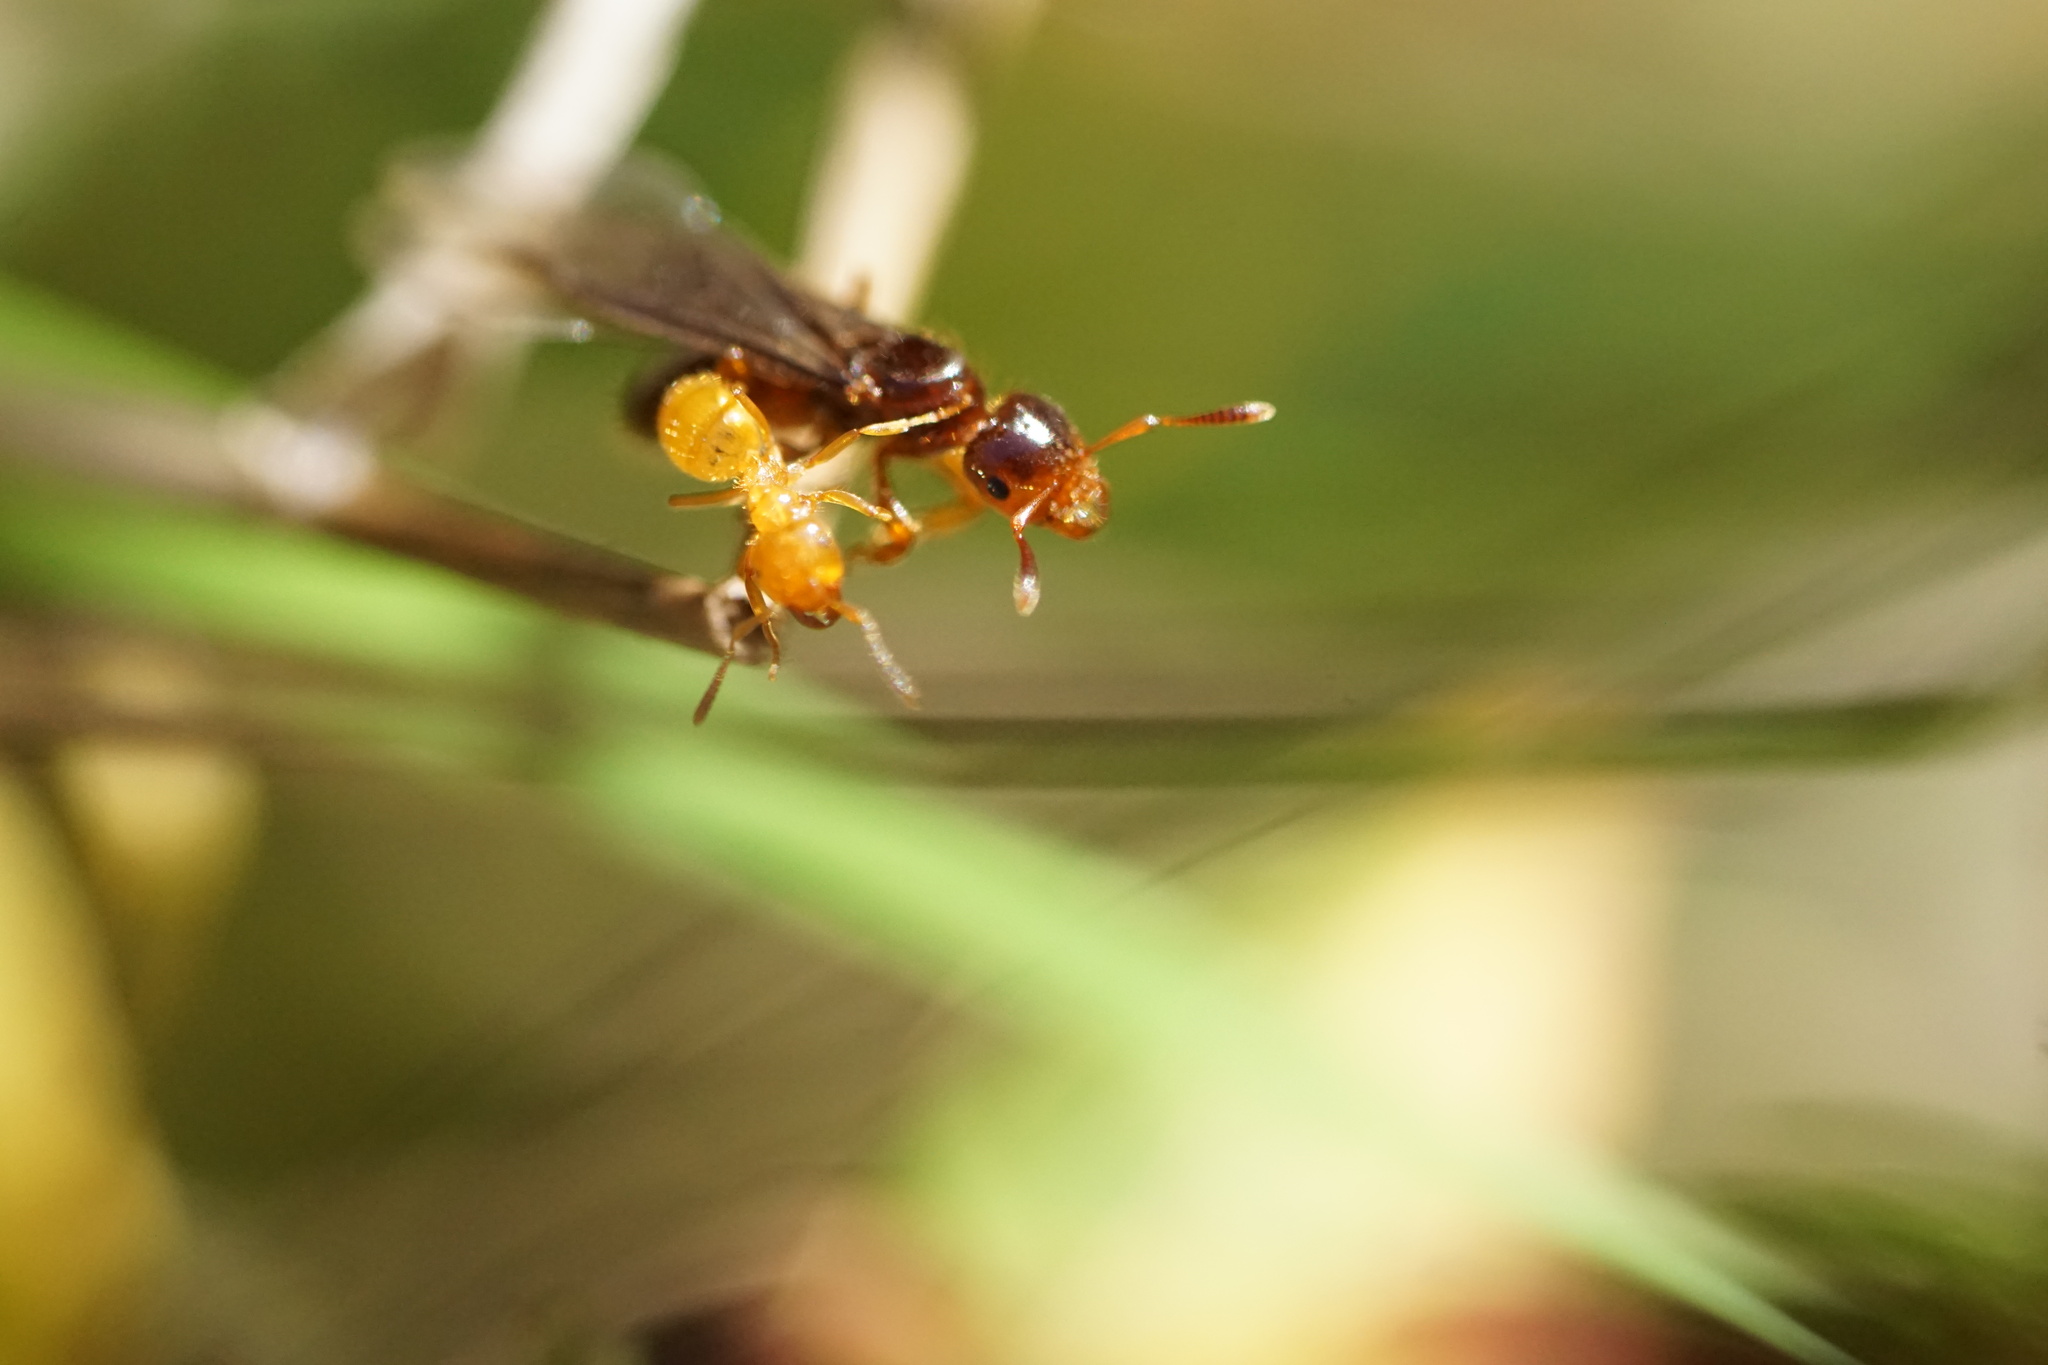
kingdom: Animalia
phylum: Arthropoda
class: Insecta
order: Hymenoptera
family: Formicidae
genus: Lasius
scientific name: Lasius claviger
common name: Common citronella ant
